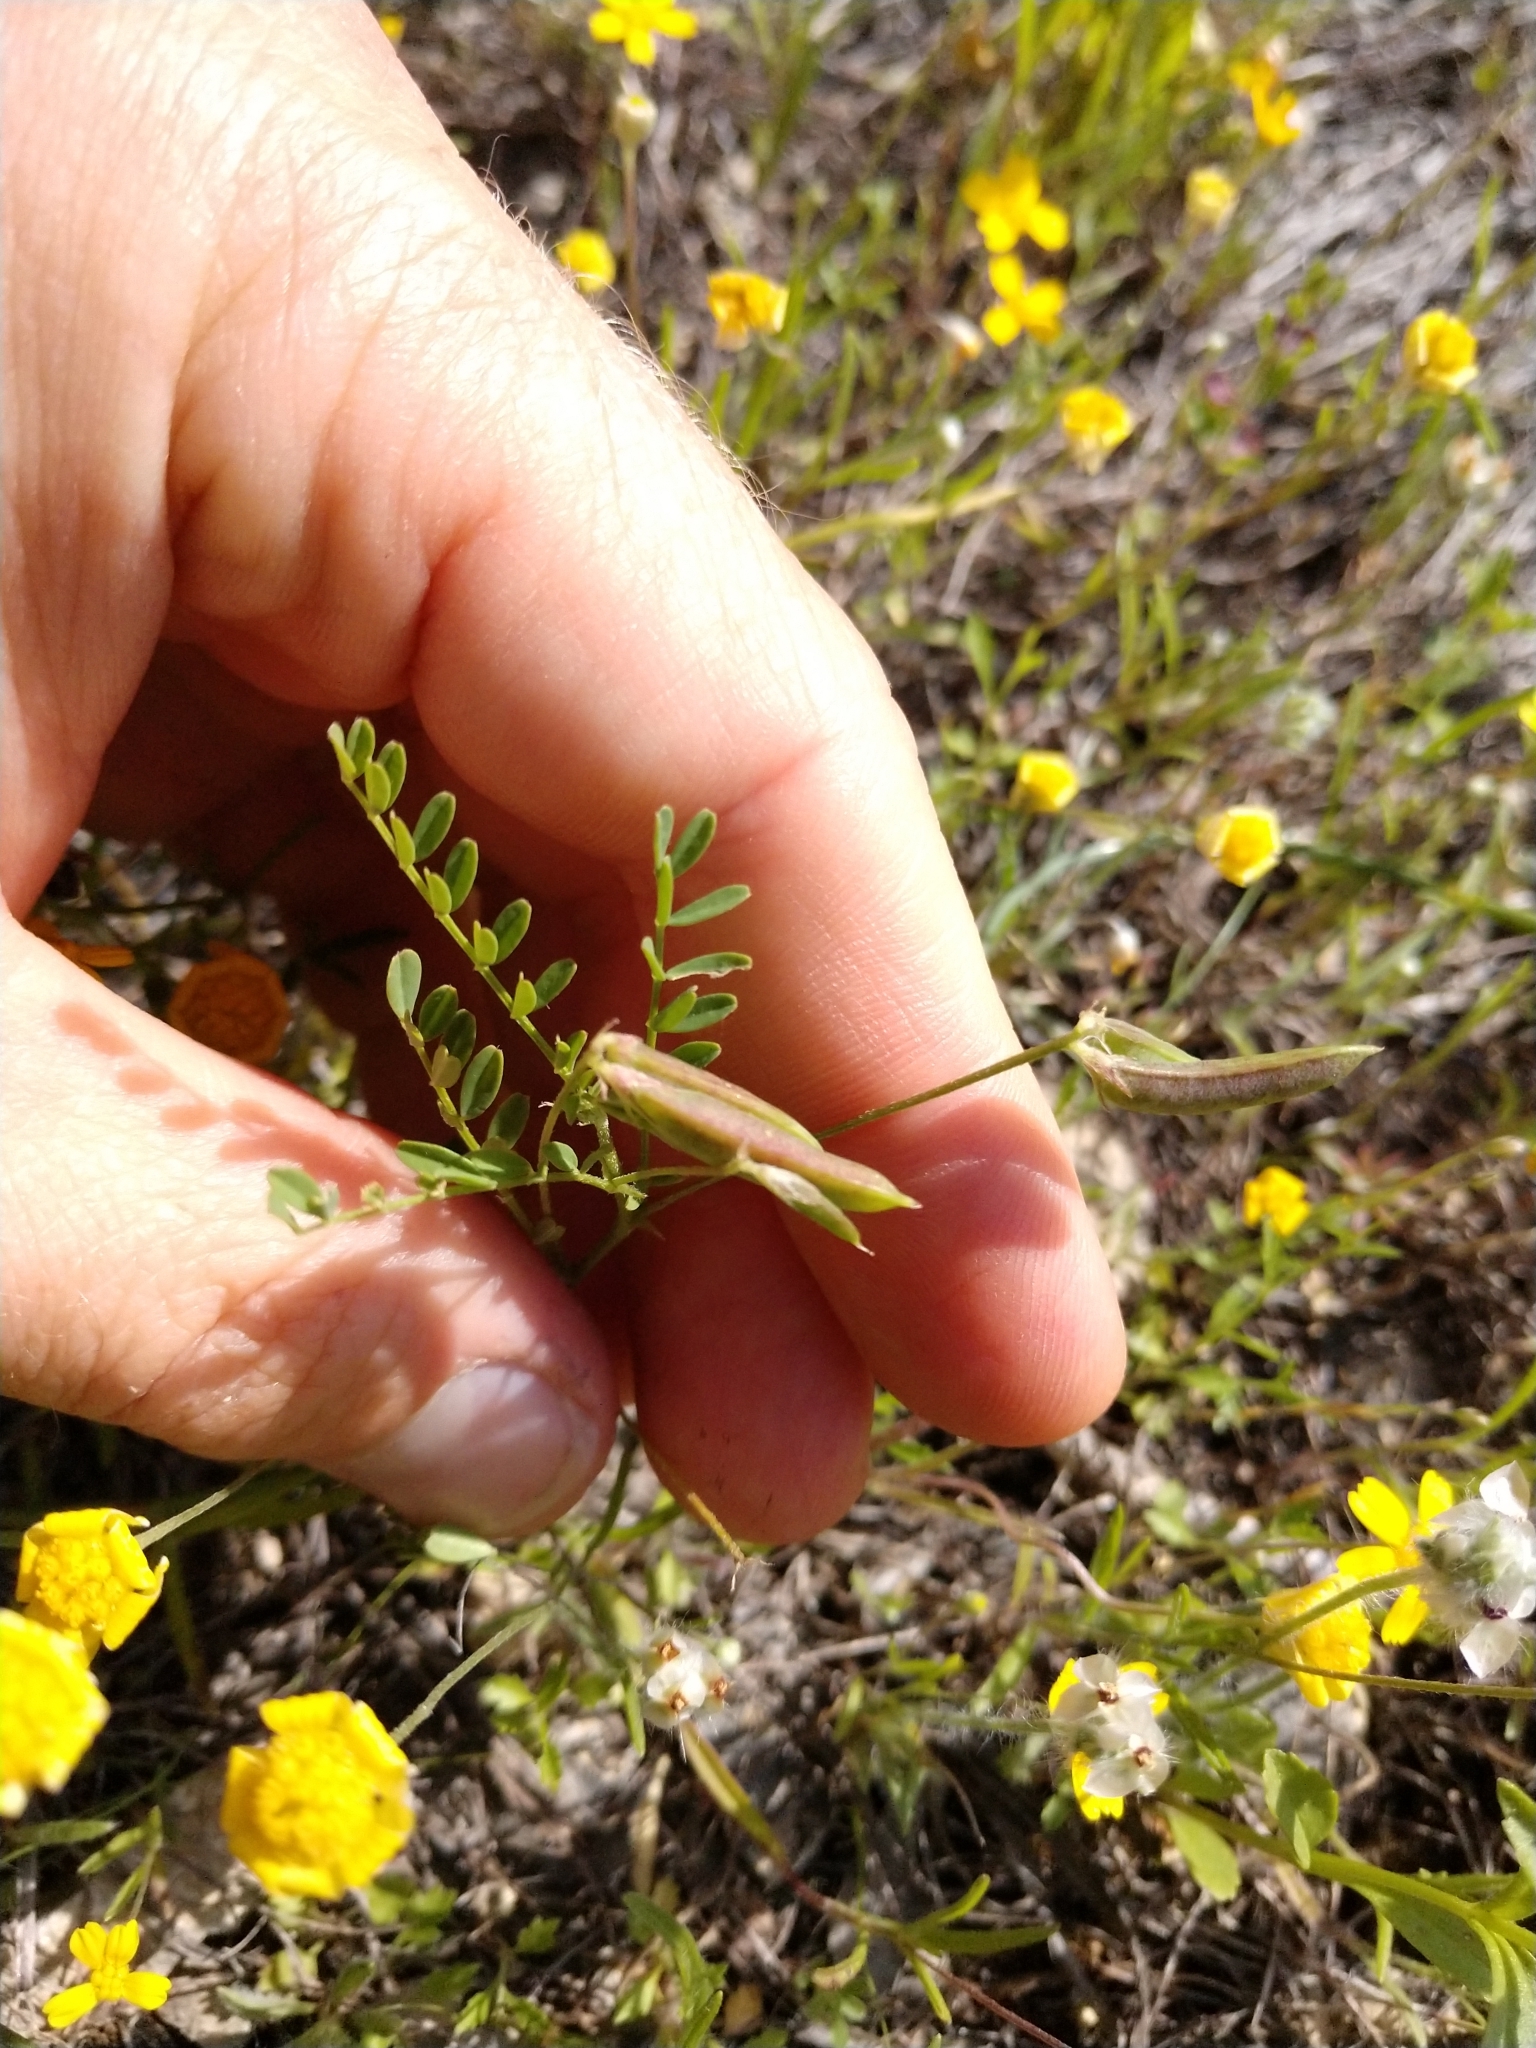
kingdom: Plantae
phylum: Tracheophyta
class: Magnoliopsida
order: Fabales
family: Fabaceae
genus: Astragalus
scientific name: Astragalus nuttallianus
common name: Smallflowered milkvetch
